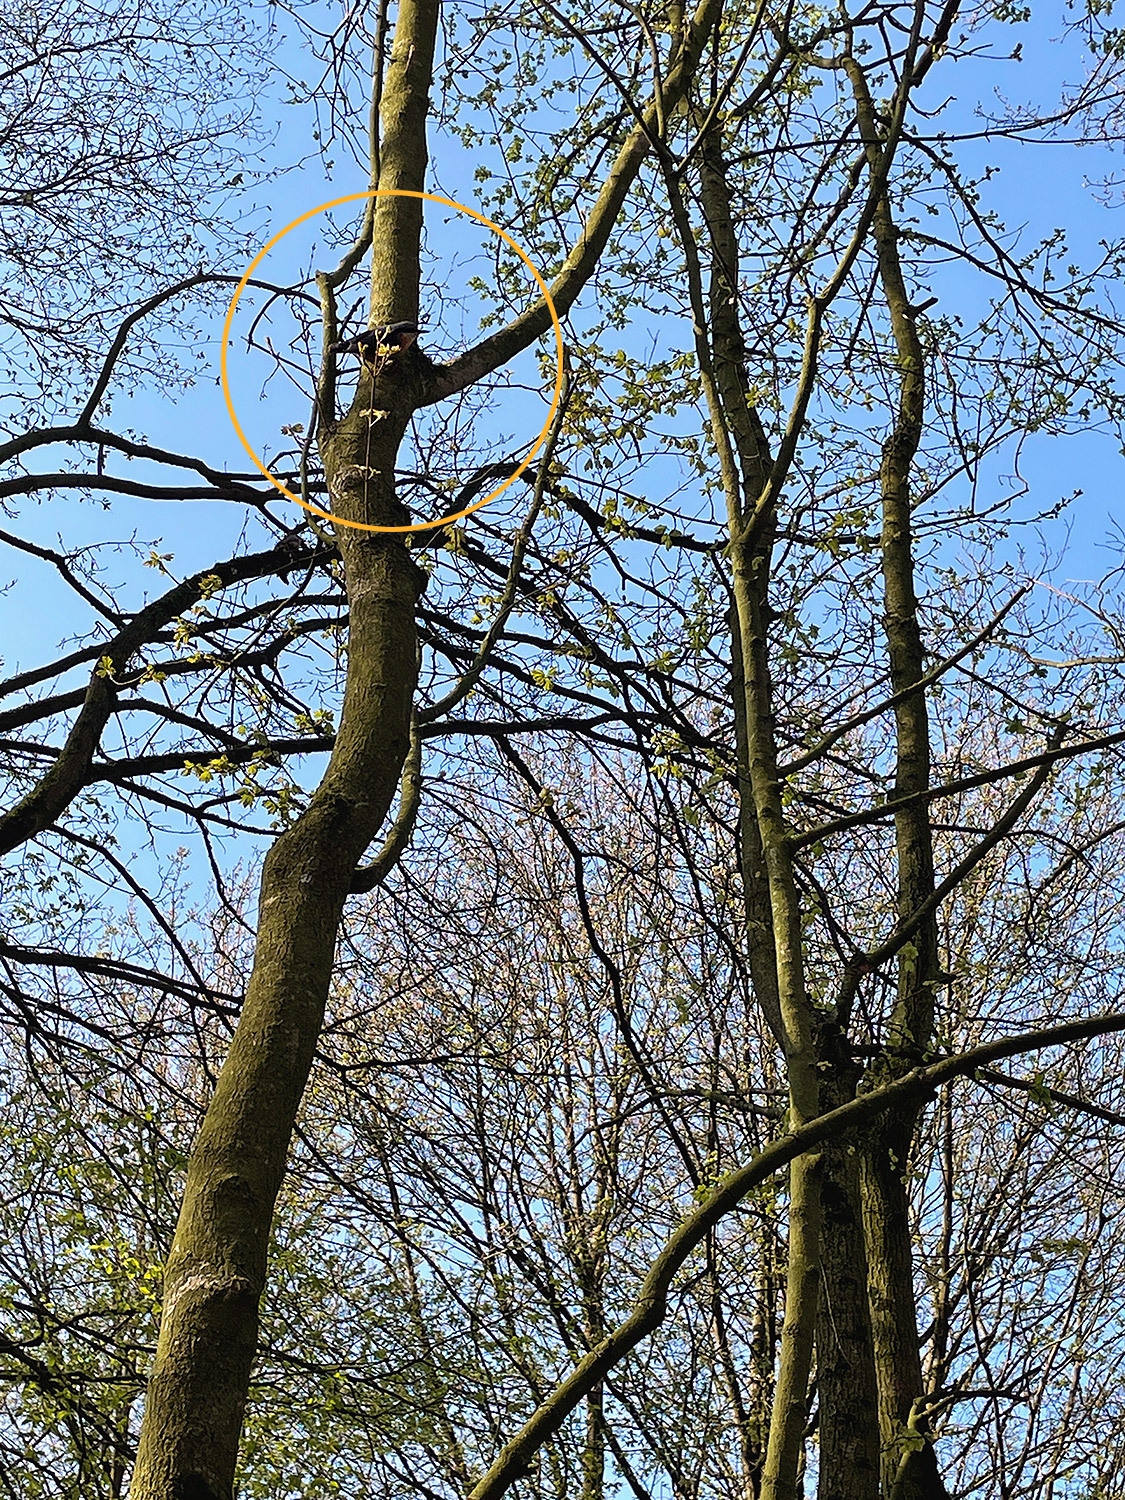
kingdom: Animalia
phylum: Chordata
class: Aves
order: Passeriformes
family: Sittidae
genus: Sitta
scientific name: Sitta europaea
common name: Eurasian nuthatch
